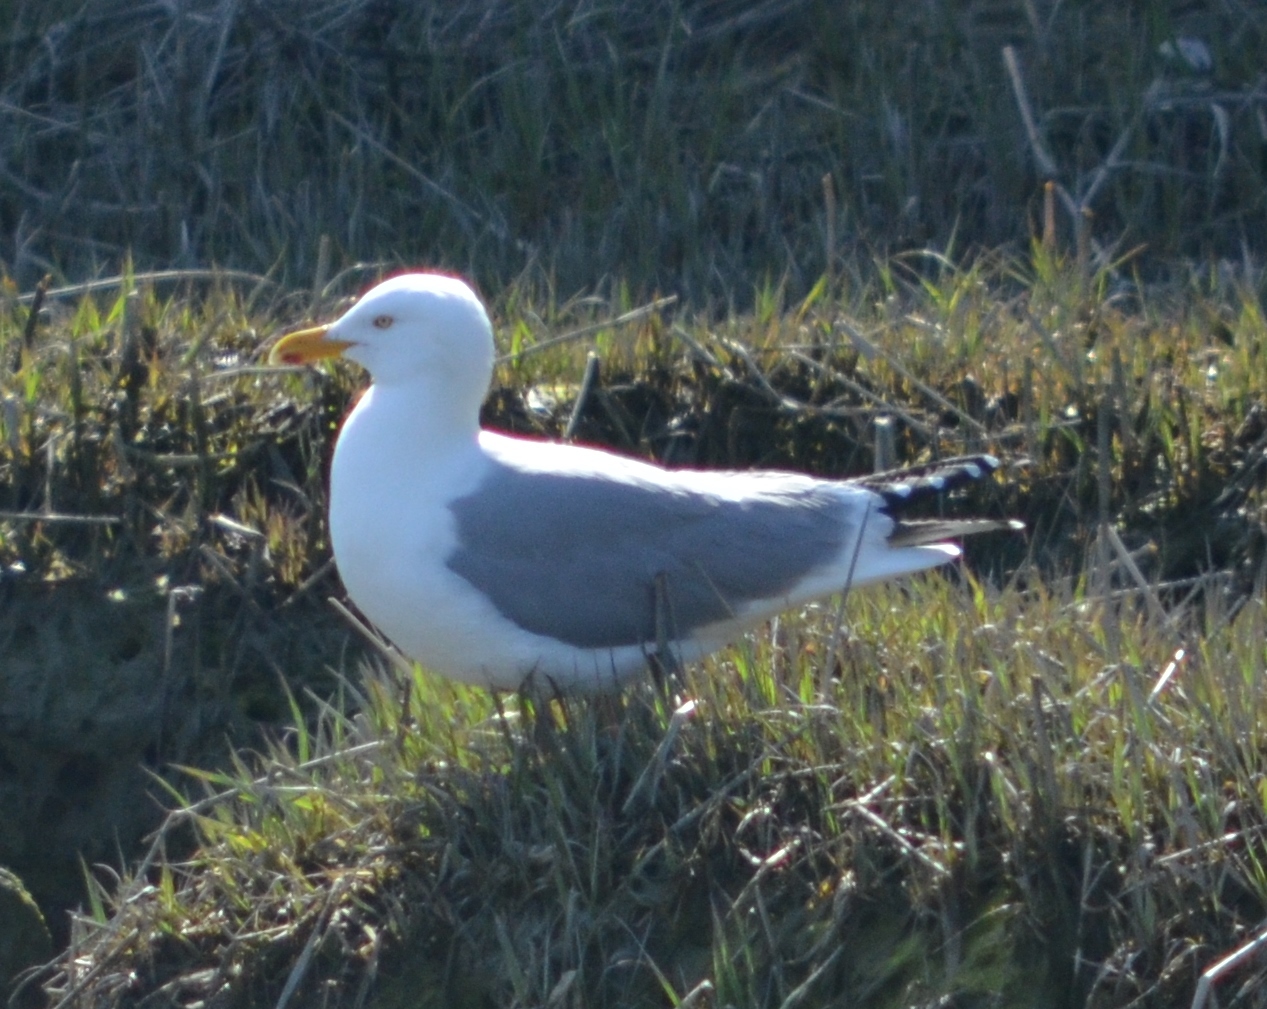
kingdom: Animalia
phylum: Chordata
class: Aves
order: Charadriiformes
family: Laridae
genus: Larus
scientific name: Larus argentatus
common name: Herring gull
